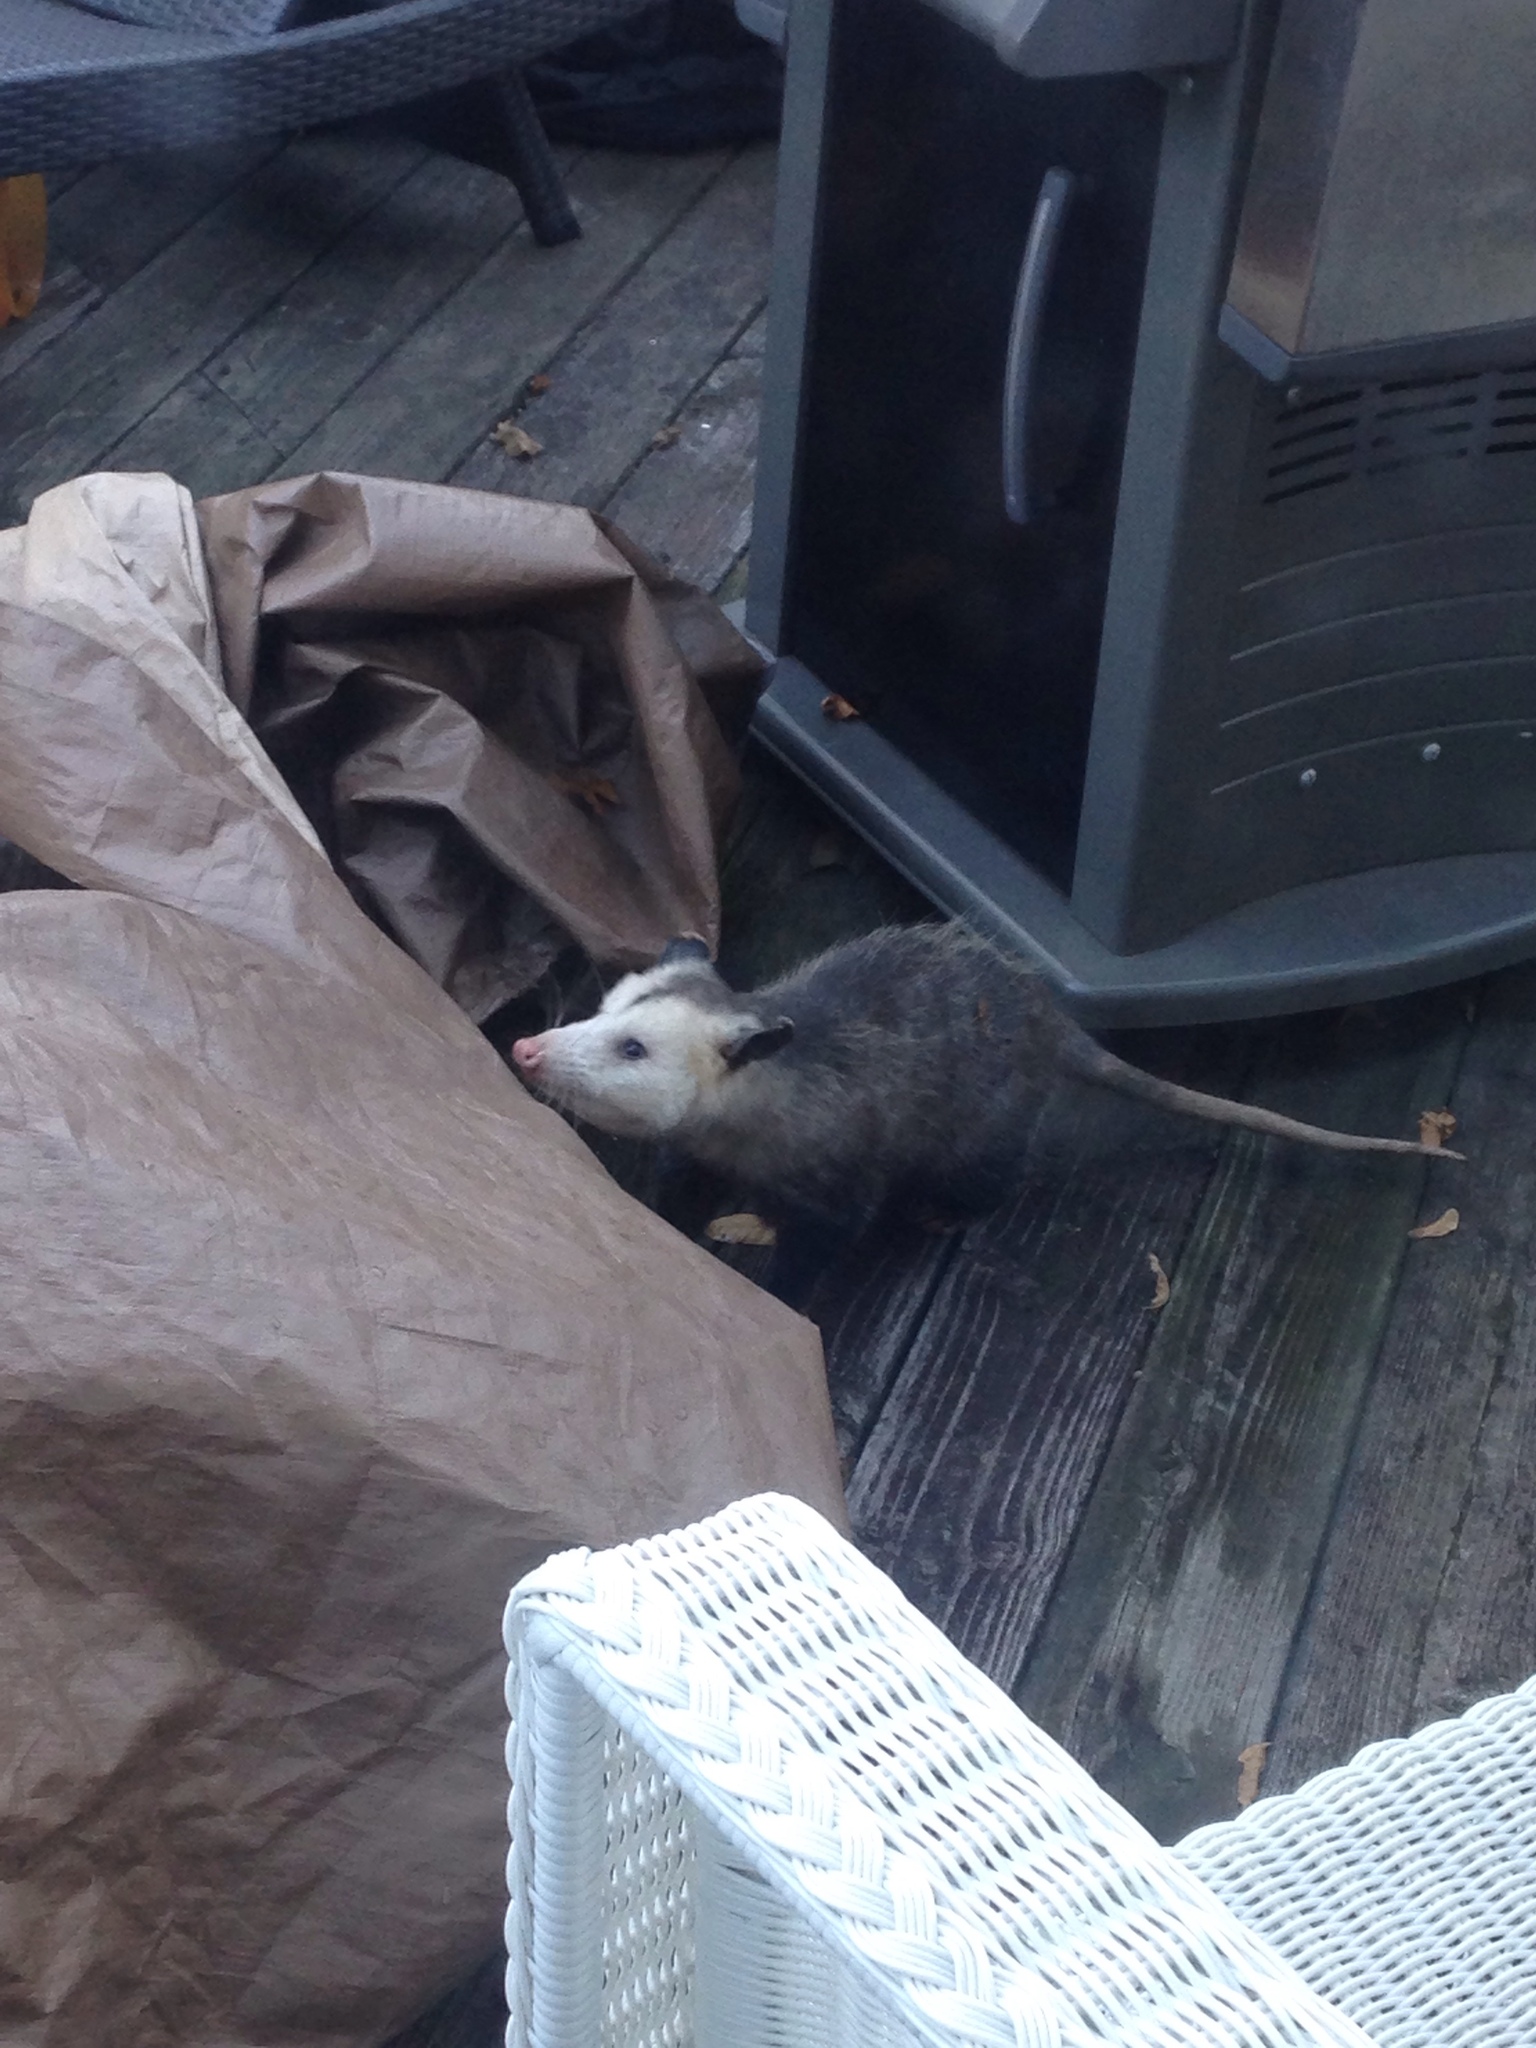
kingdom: Animalia
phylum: Chordata
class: Mammalia
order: Didelphimorphia
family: Didelphidae
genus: Didelphis
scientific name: Didelphis virginiana
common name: Virginia opossum
